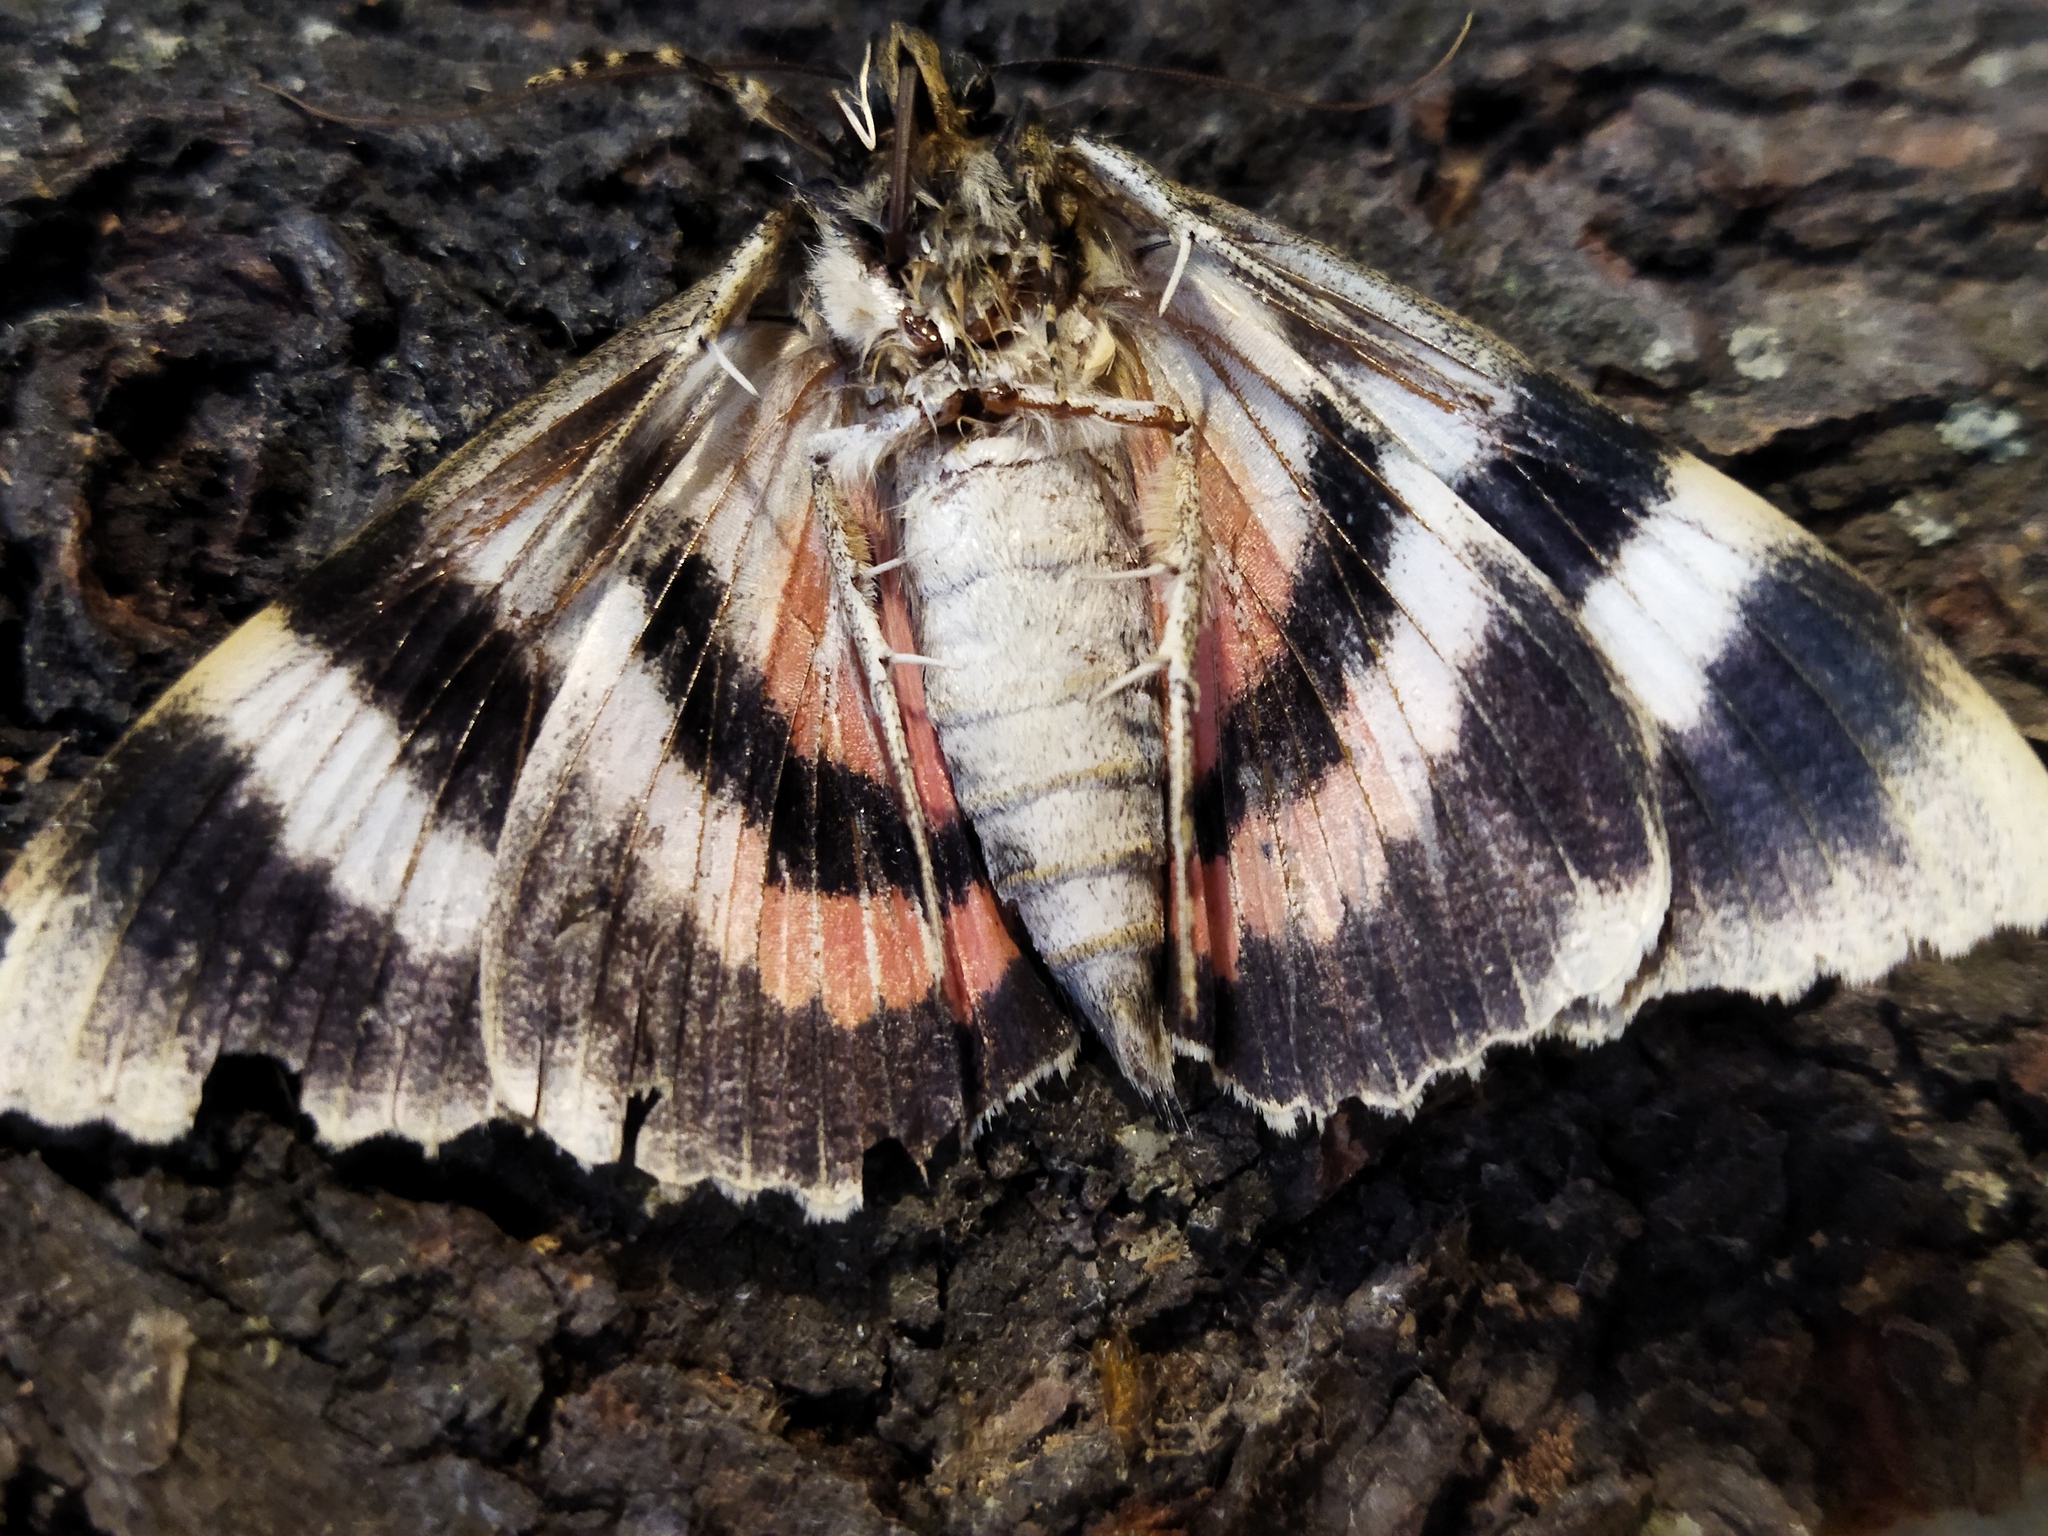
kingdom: Animalia
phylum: Arthropoda
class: Insecta
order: Lepidoptera
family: Erebidae
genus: Catocala
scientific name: Catocala elocata
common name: French red underwing
